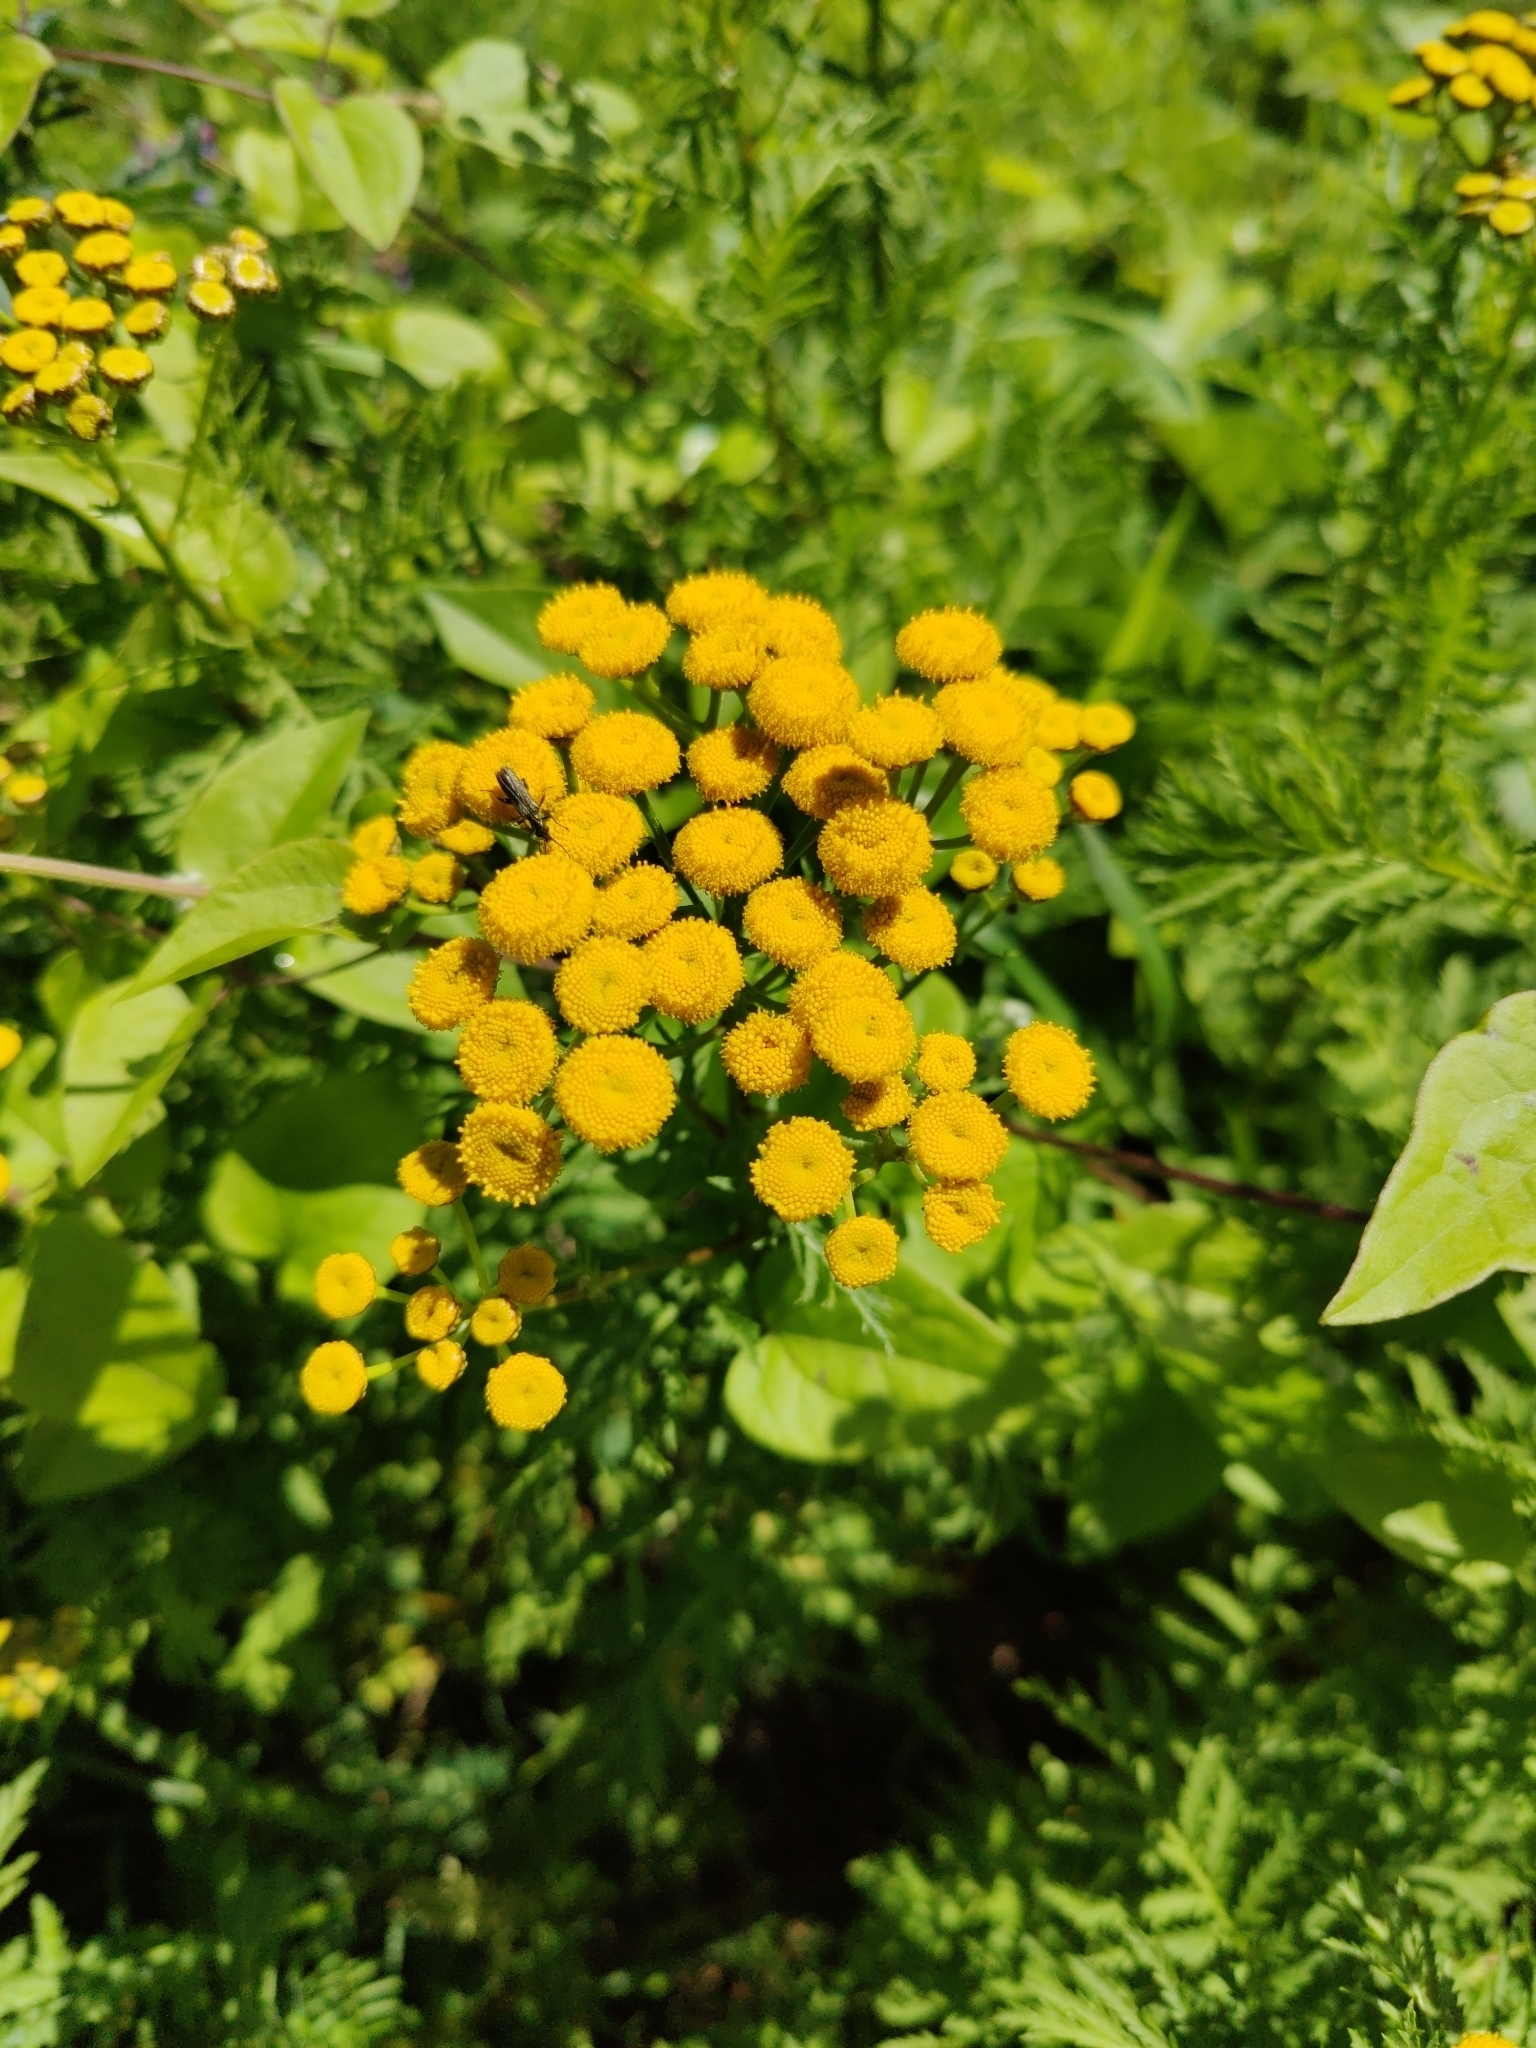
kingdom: Plantae
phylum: Tracheophyta
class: Magnoliopsida
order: Asterales
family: Asteraceae
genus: Tanacetum
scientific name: Tanacetum vulgare
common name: Common tansy
